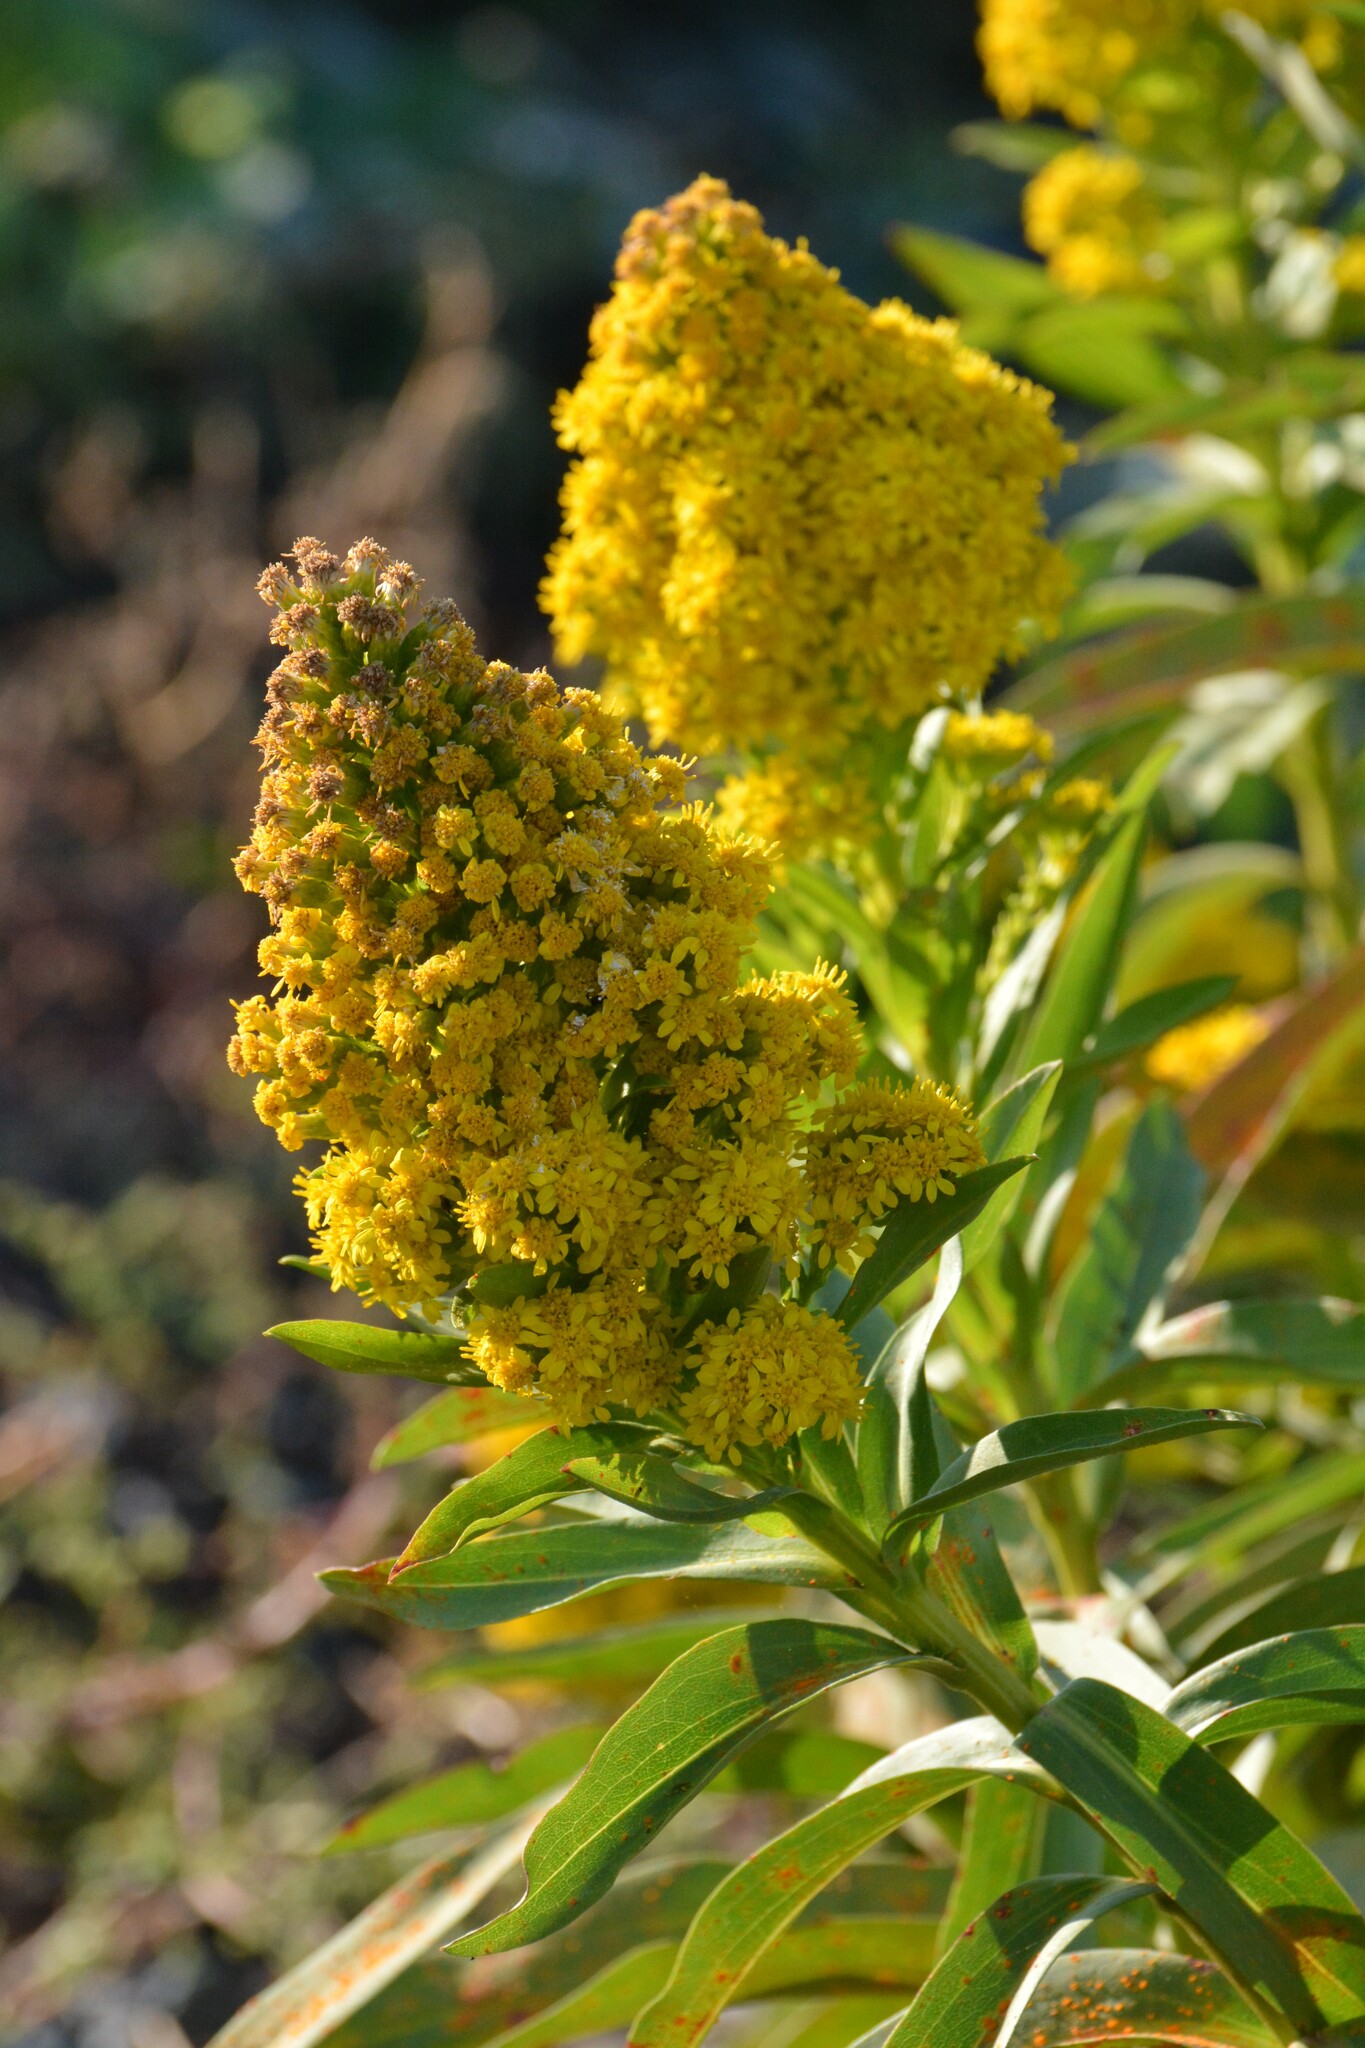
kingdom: Plantae
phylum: Tracheophyta
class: Magnoliopsida
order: Asterales
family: Asteraceae
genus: Solidago
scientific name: Solidago sempervirens
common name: Salt-marsh goldenrod
